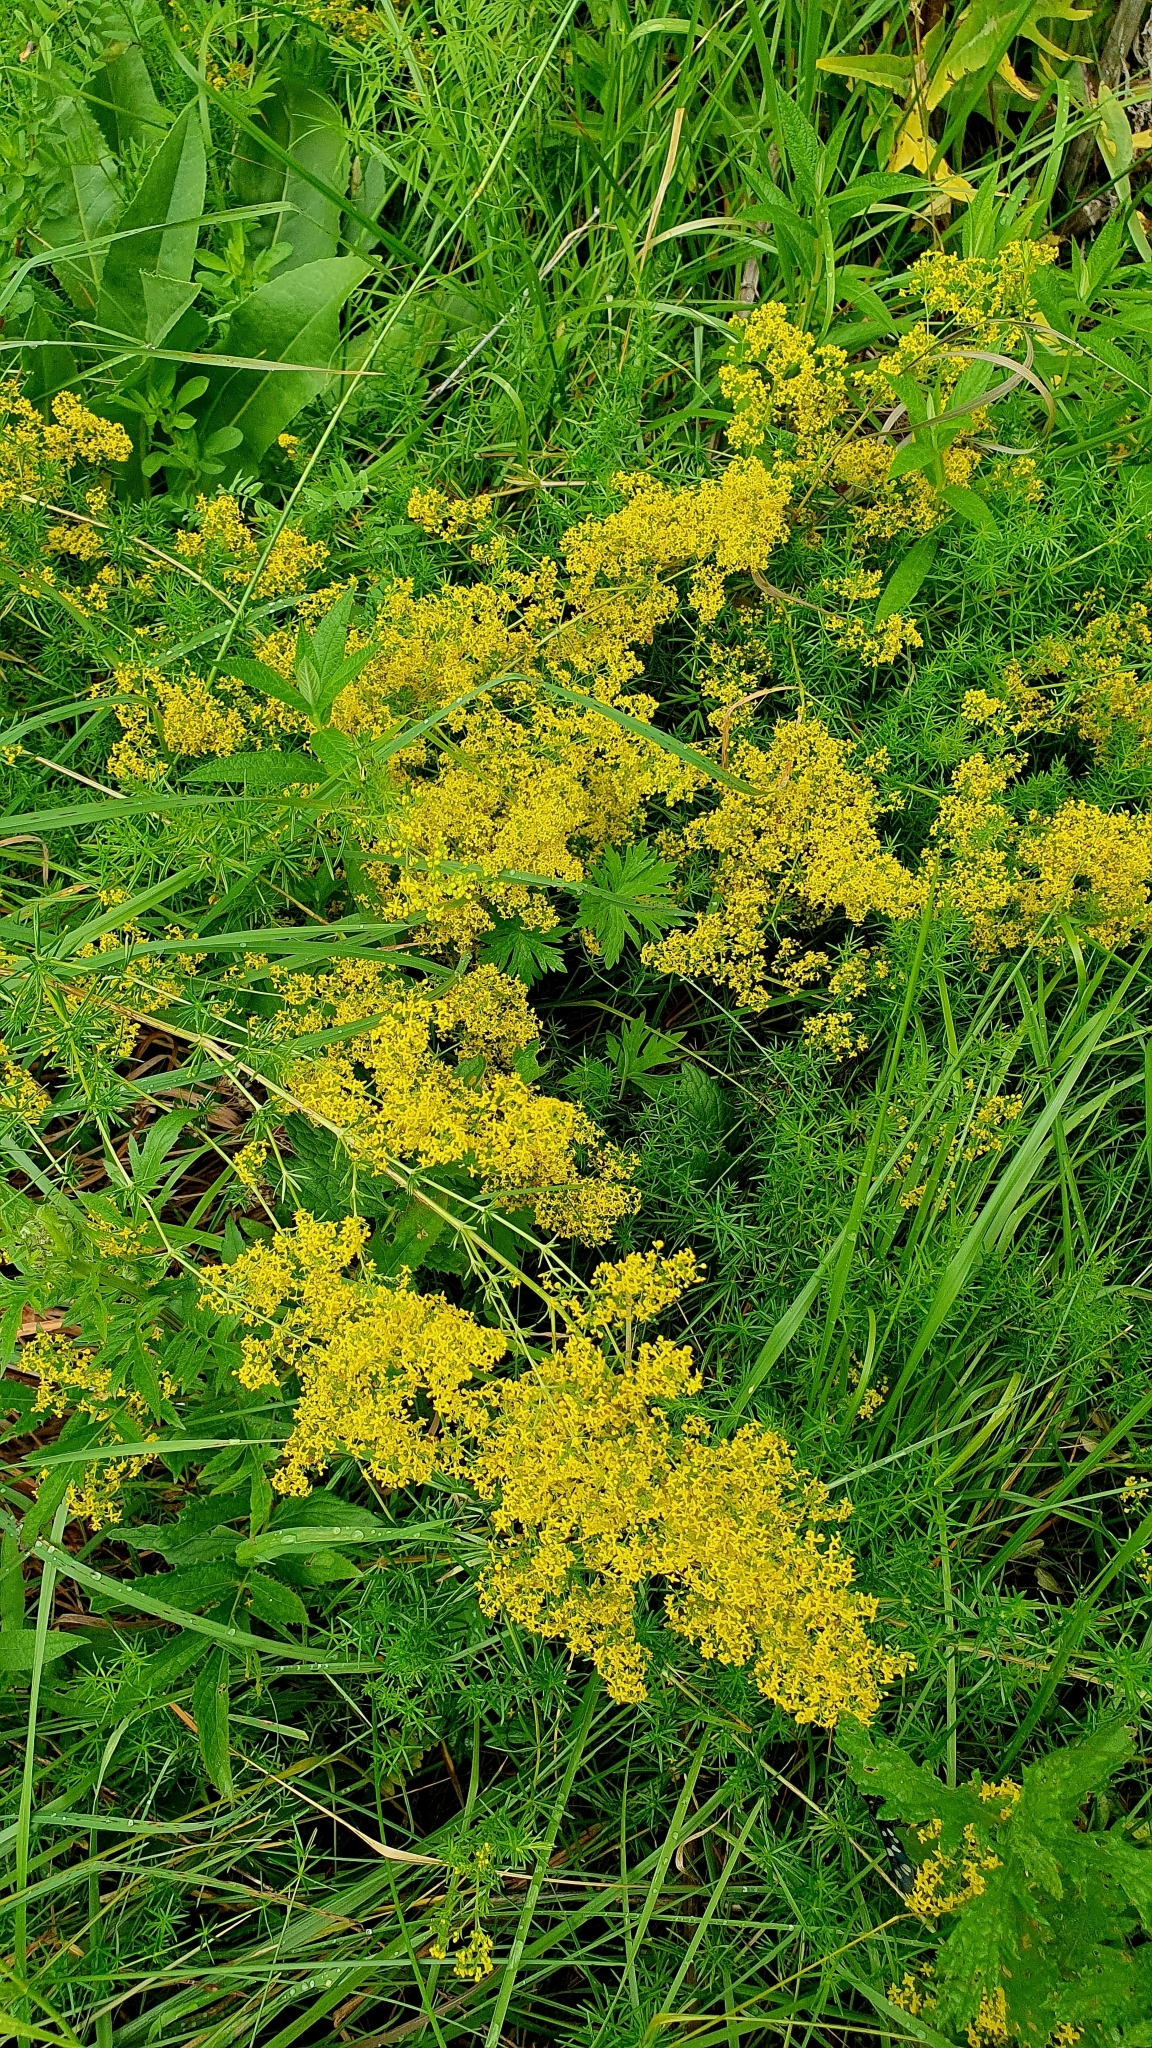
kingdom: Plantae
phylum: Tracheophyta
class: Magnoliopsida
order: Gentianales
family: Rubiaceae
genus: Galium
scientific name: Galium verum
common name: Lady's bedstraw
